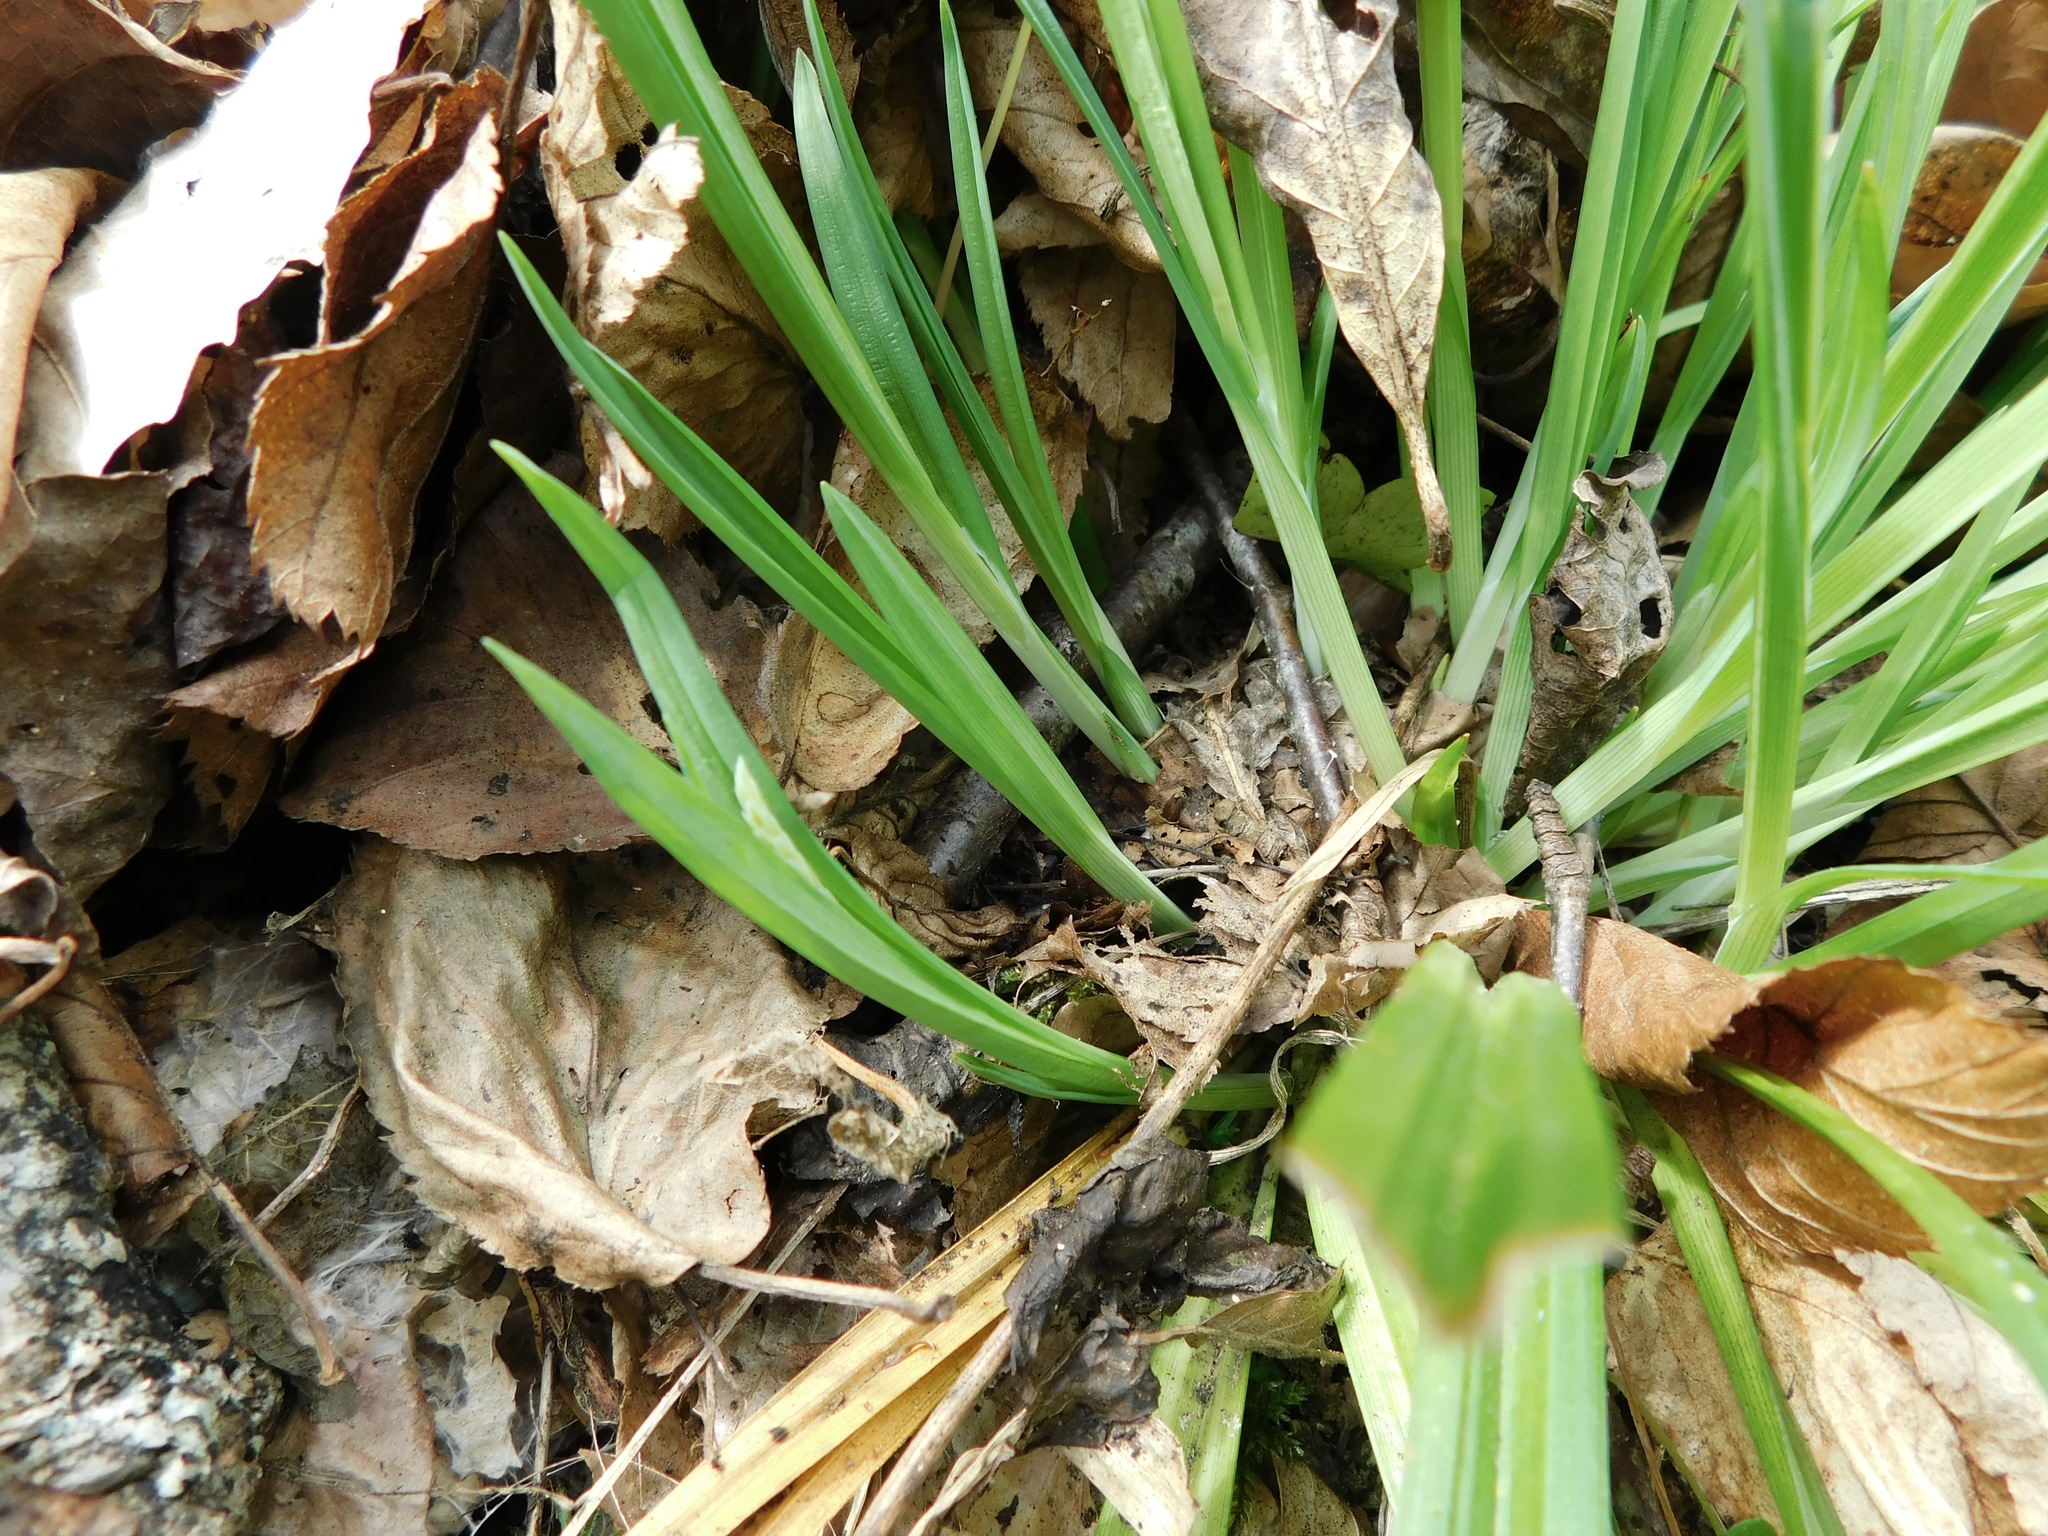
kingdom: Plantae
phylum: Tracheophyta
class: Liliopsida
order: Poales
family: Cyperaceae
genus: Carex
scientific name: Carex blanda
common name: Bland sedge
